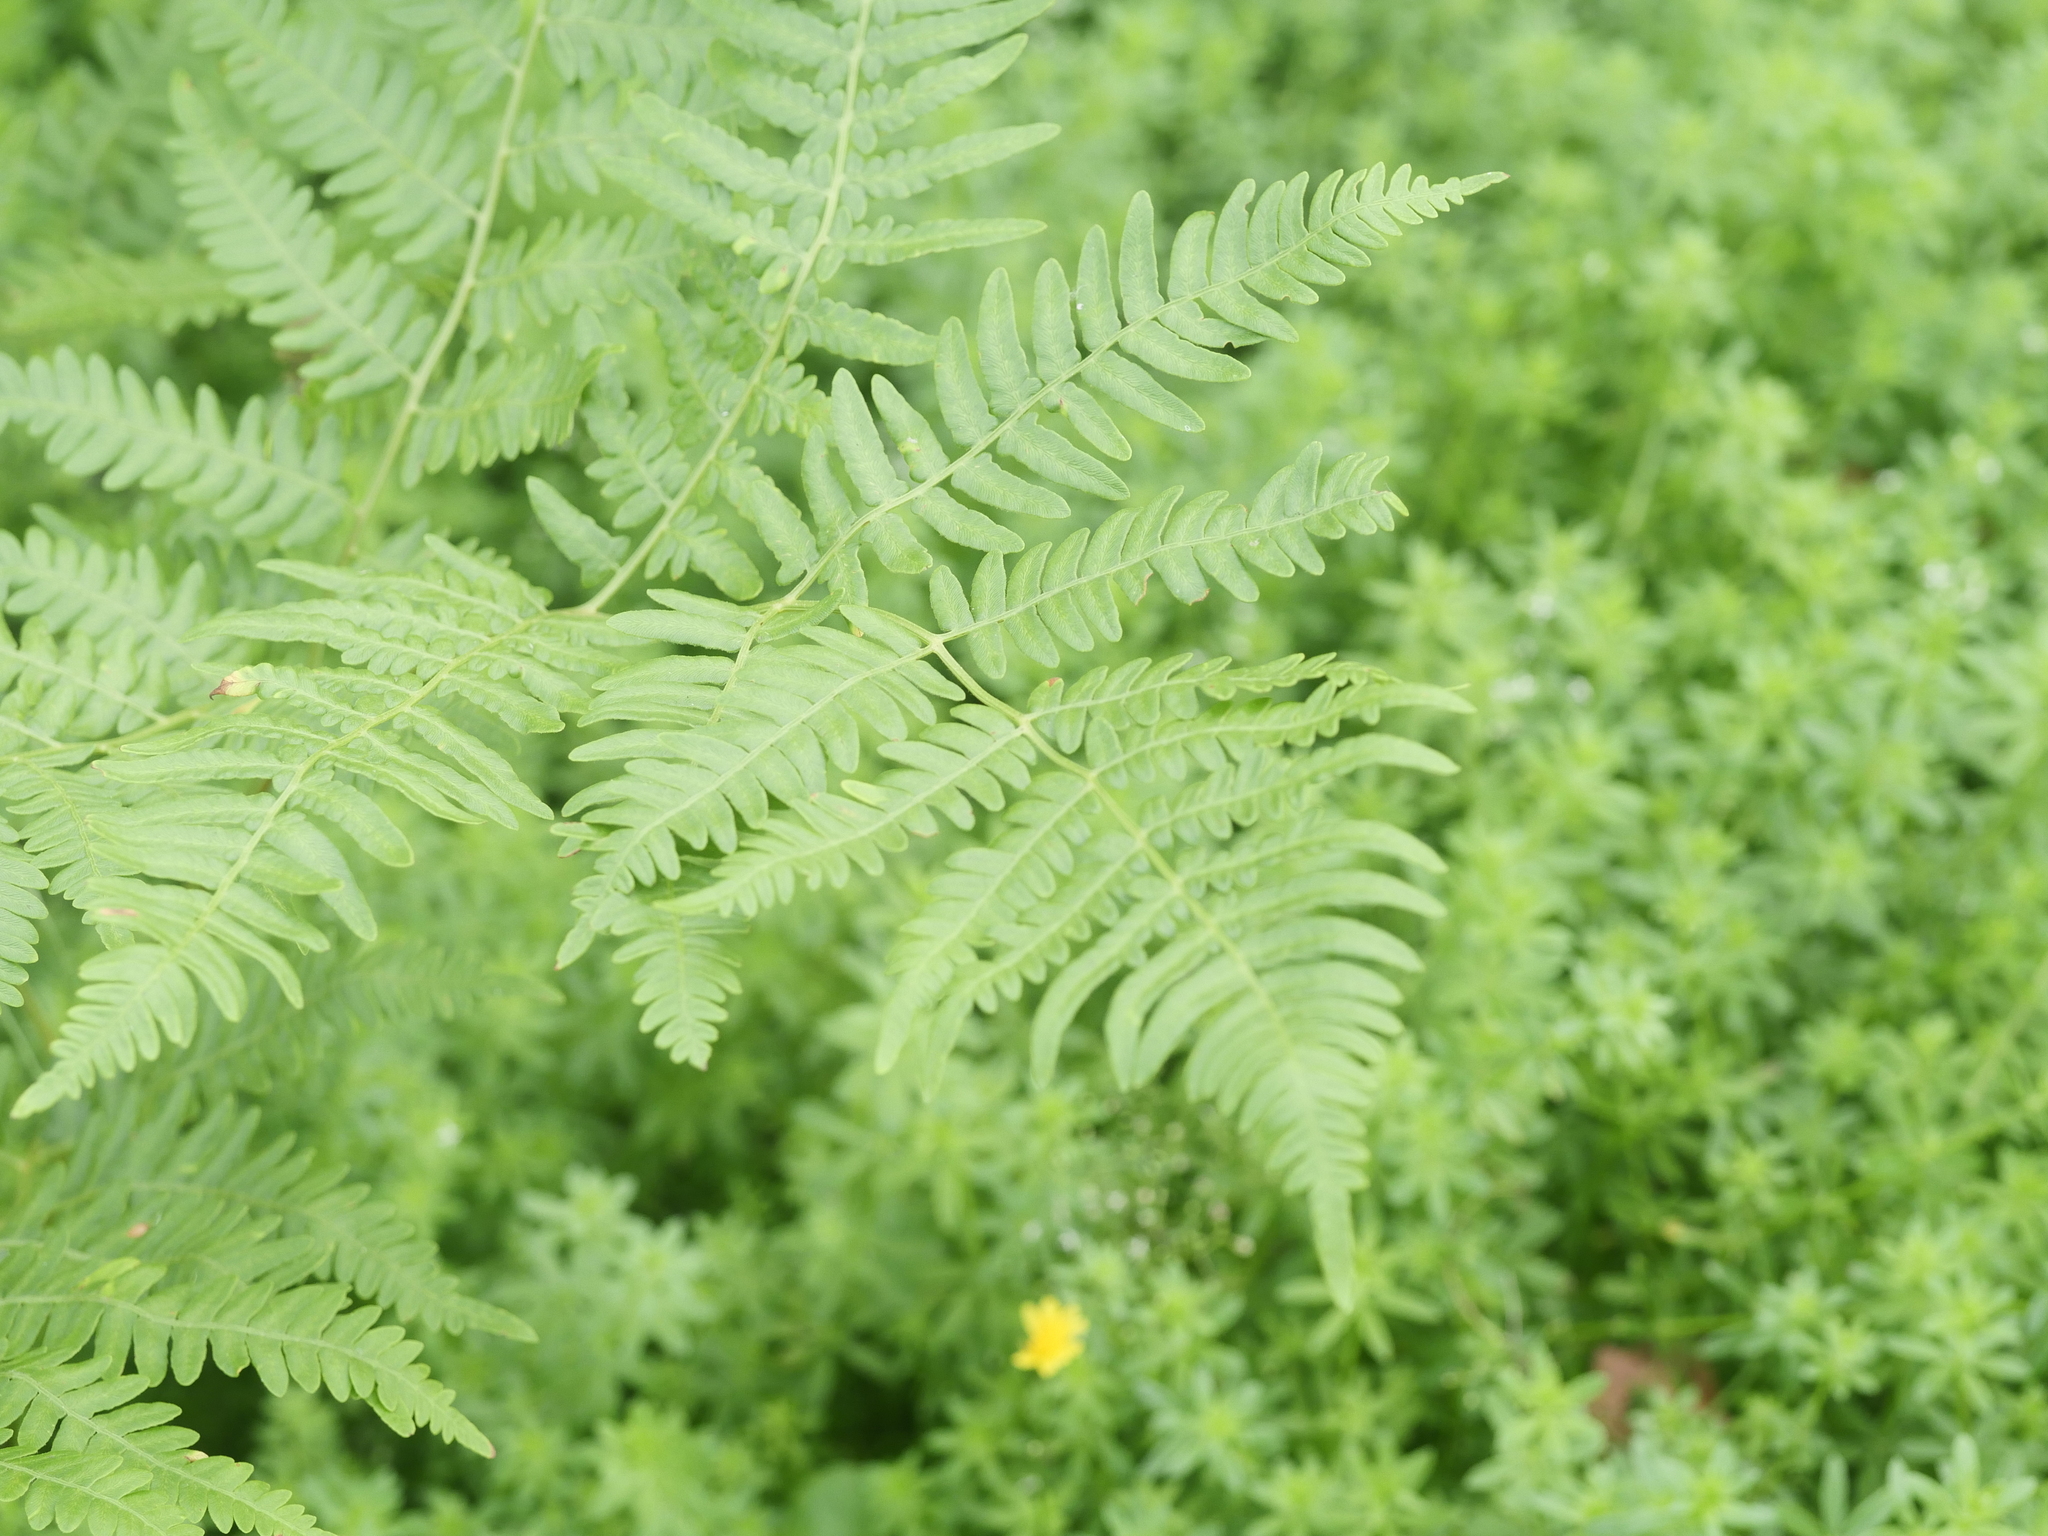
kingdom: Plantae
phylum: Tracheophyta
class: Polypodiopsida
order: Polypodiales
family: Dennstaedtiaceae
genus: Pteridium
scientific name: Pteridium aquilinum
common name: Bracken
